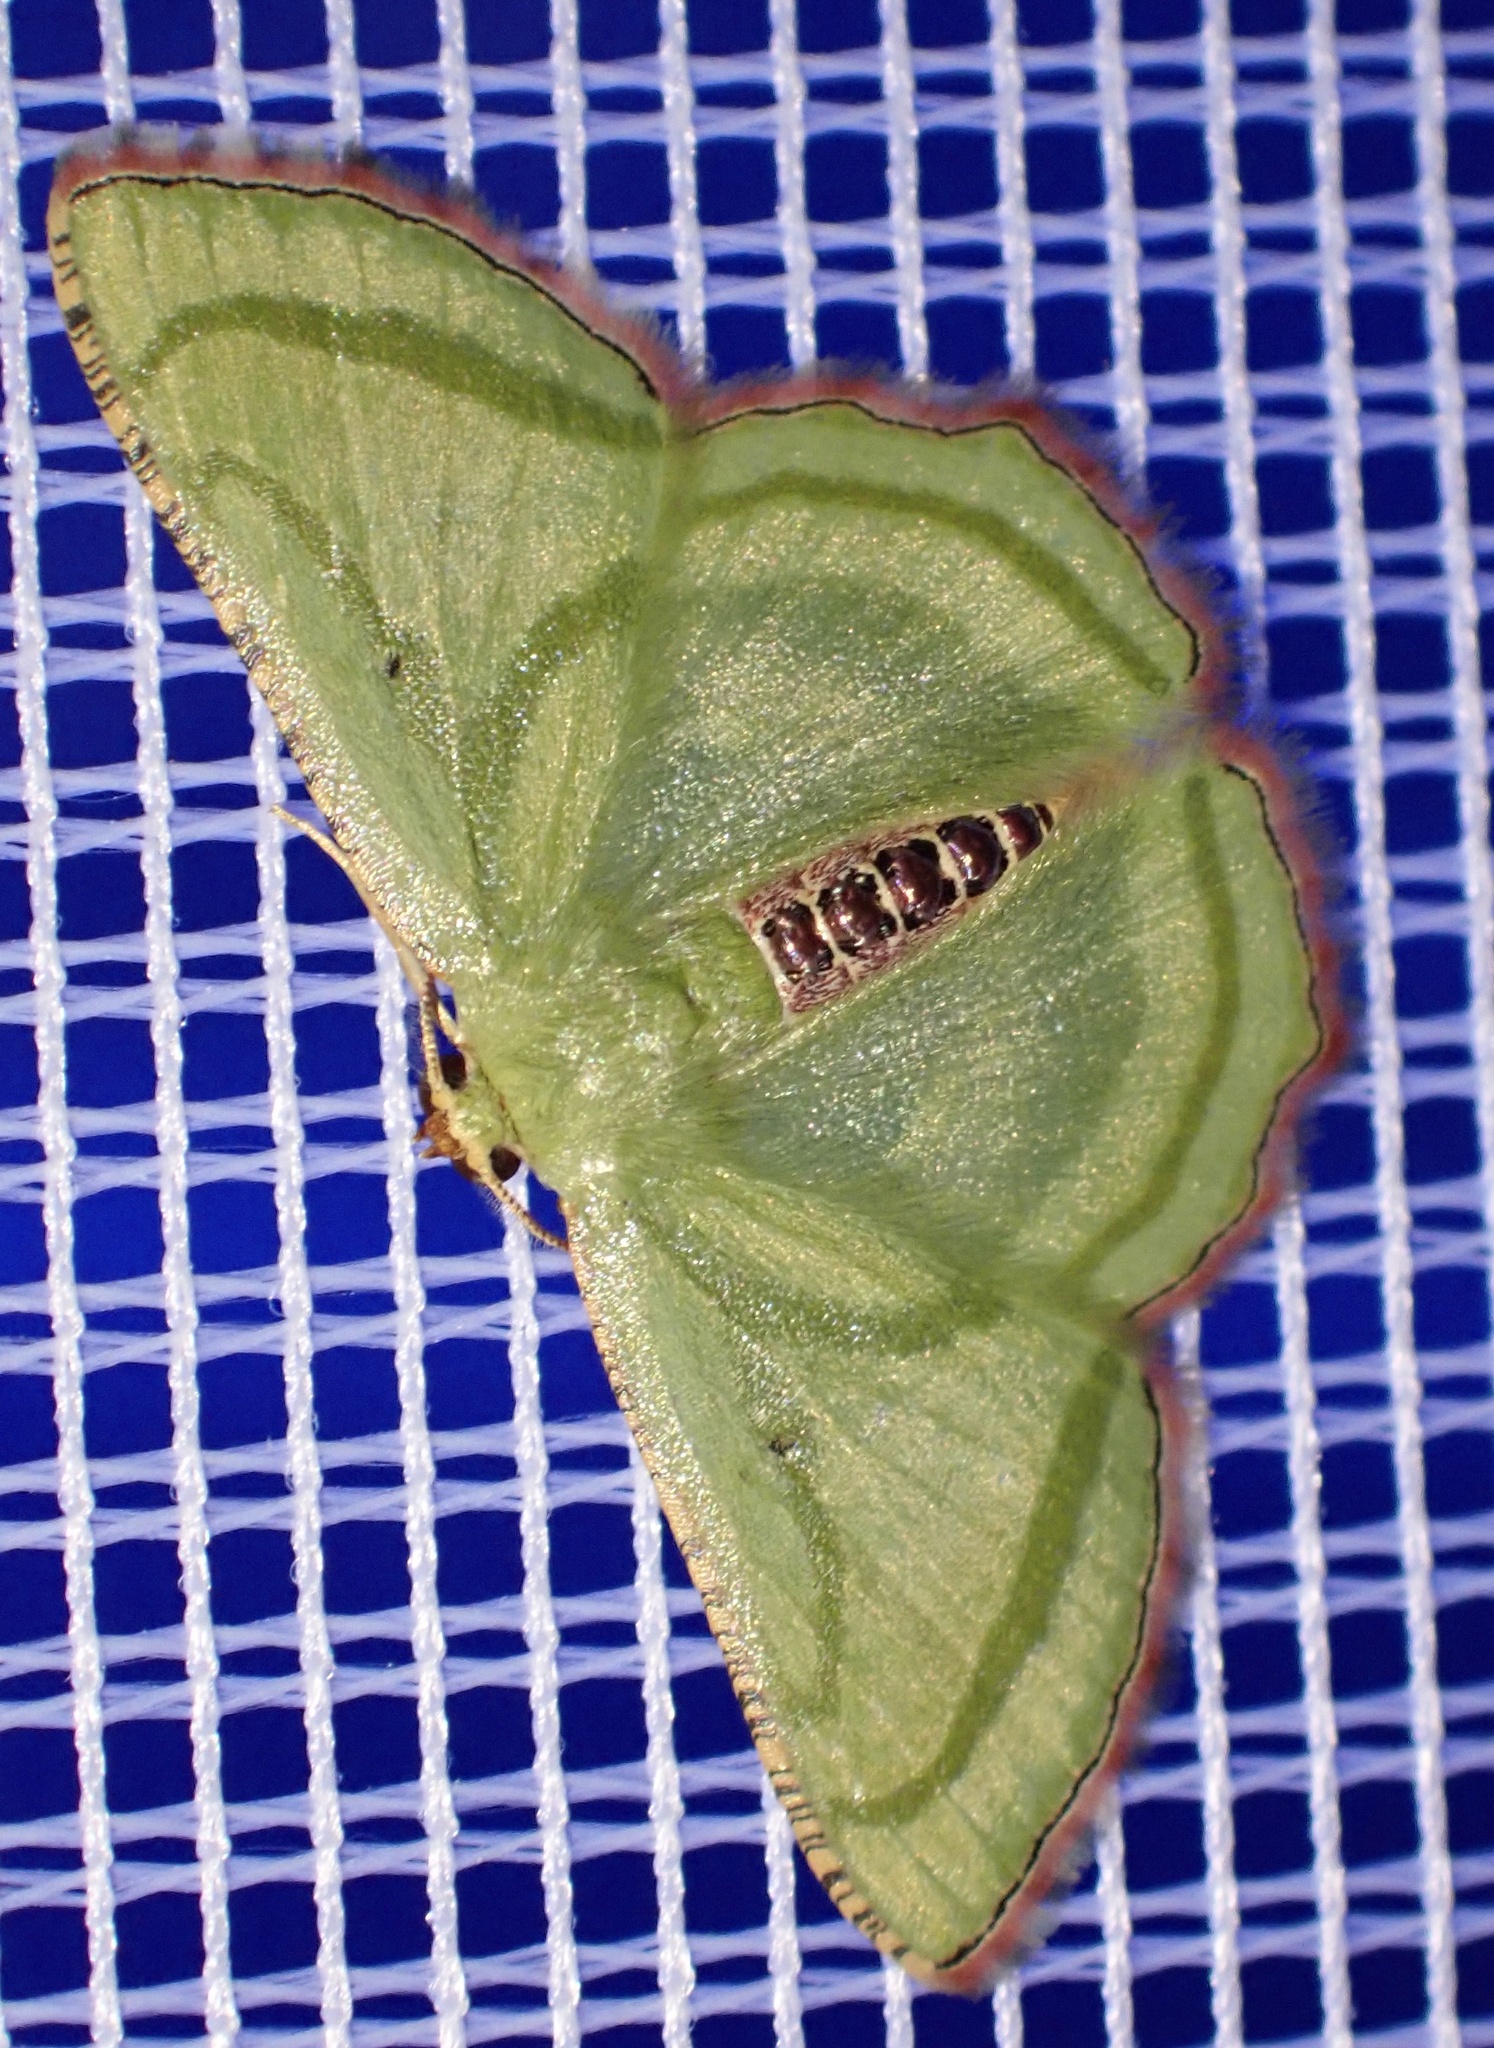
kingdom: Animalia
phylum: Arthropoda
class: Insecta
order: Lepidoptera
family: Geometridae
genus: Metallochlora
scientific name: Metallochlora lineata
